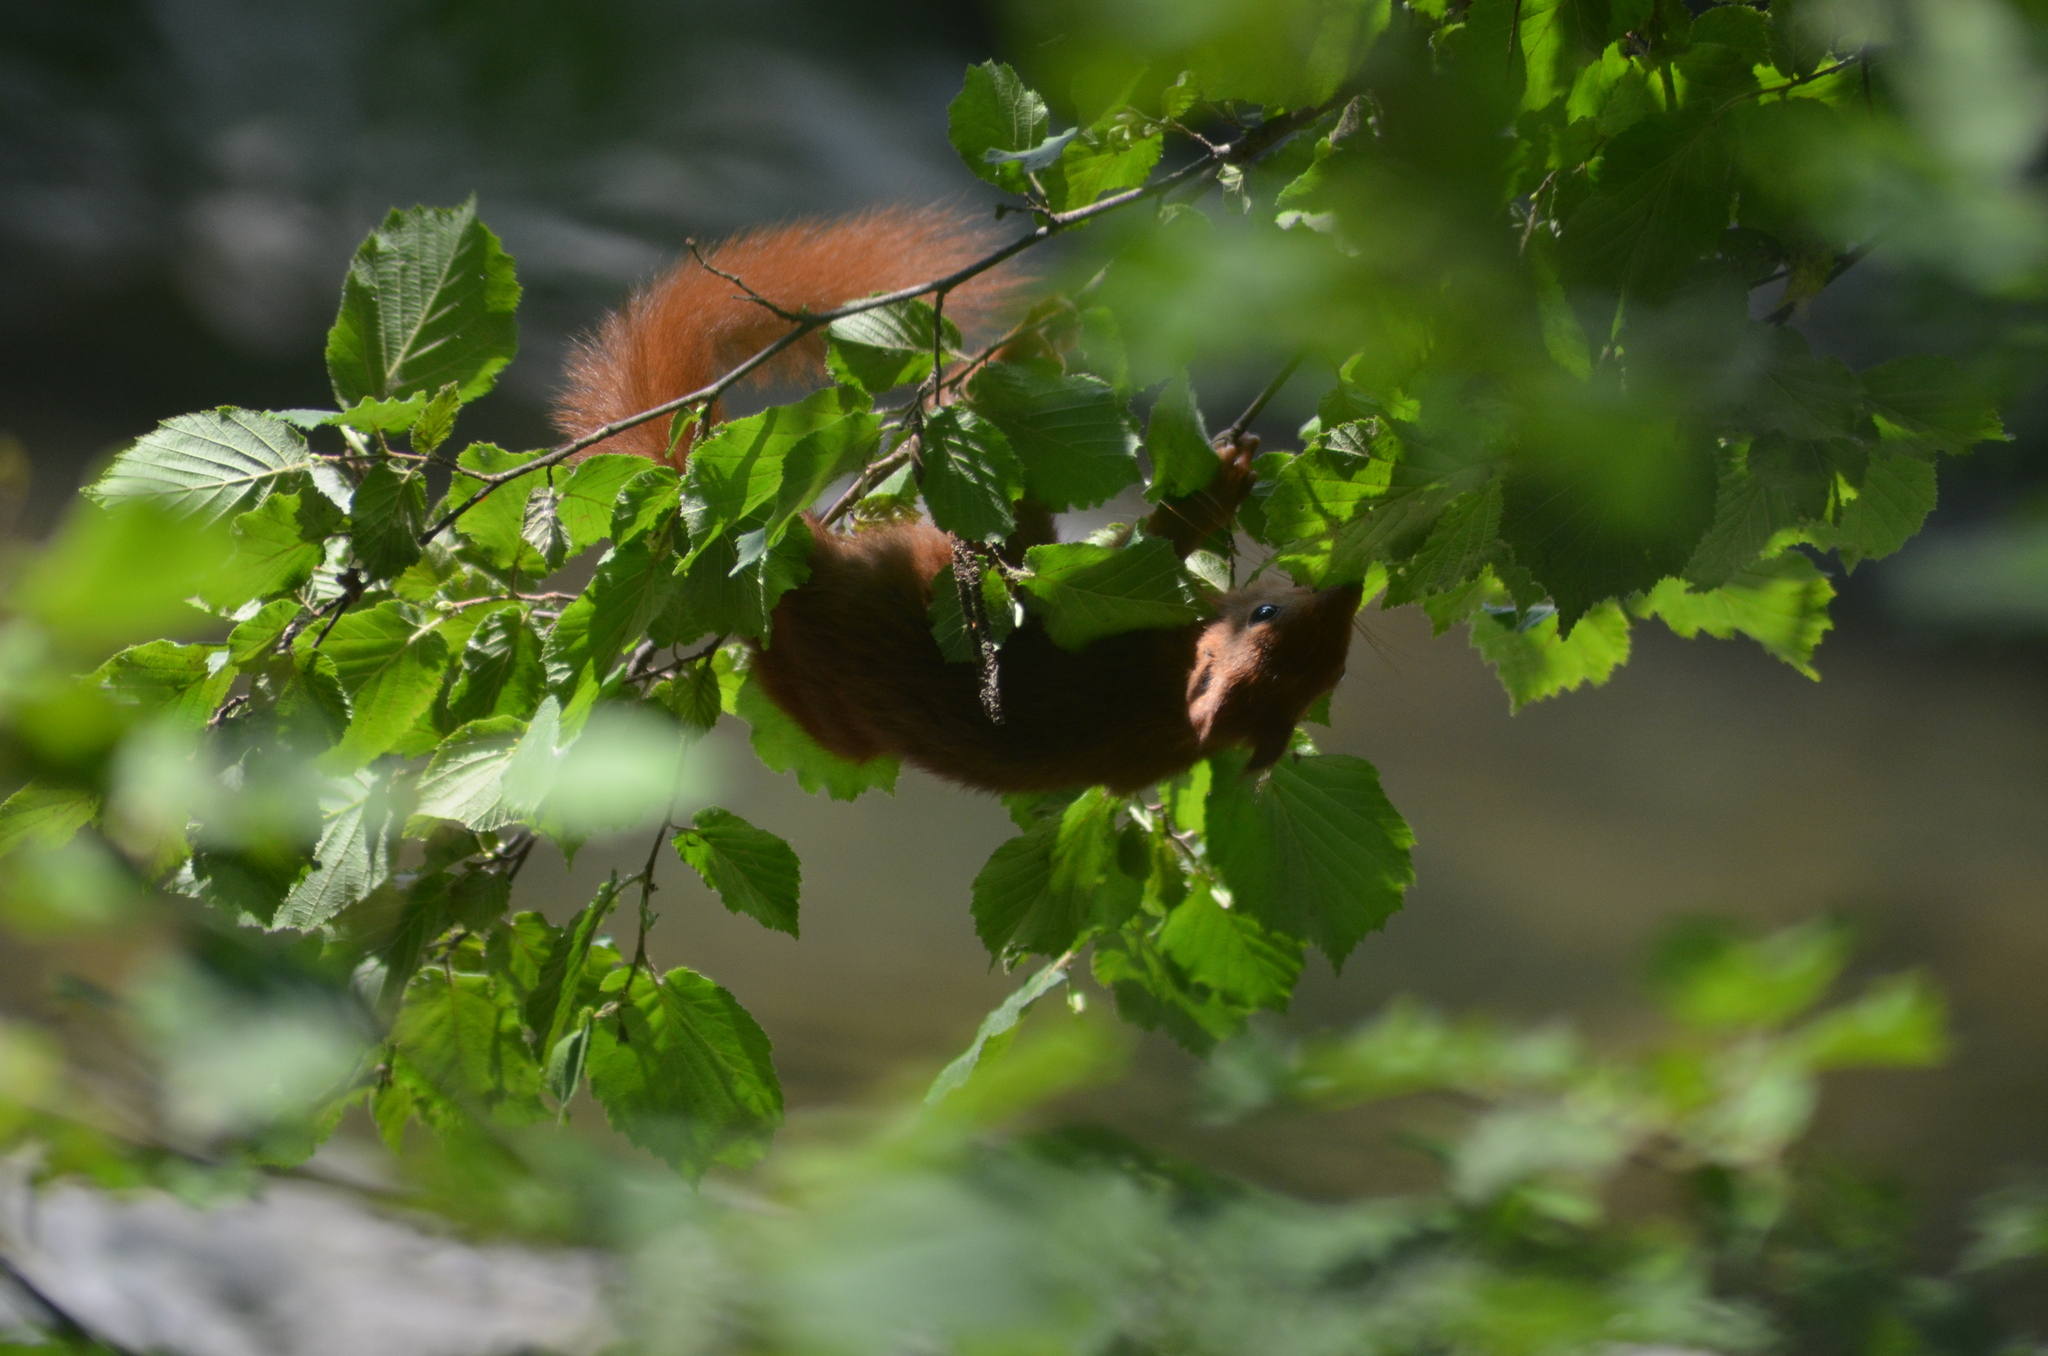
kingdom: Animalia
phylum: Chordata
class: Mammalia
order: Rodentia
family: Sciuridae
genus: Sciurus
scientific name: Sciurus vulgaris
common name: Eurasian red squirrel
